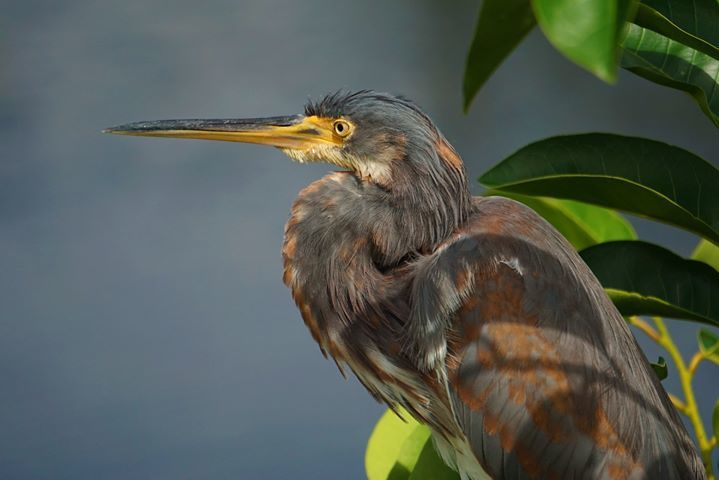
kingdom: Animalia
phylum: Chordata
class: Aves
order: Pelecaniformes
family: Ardeidae
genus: Egretta
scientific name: Egretta tricolor
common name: Tricolored heron
